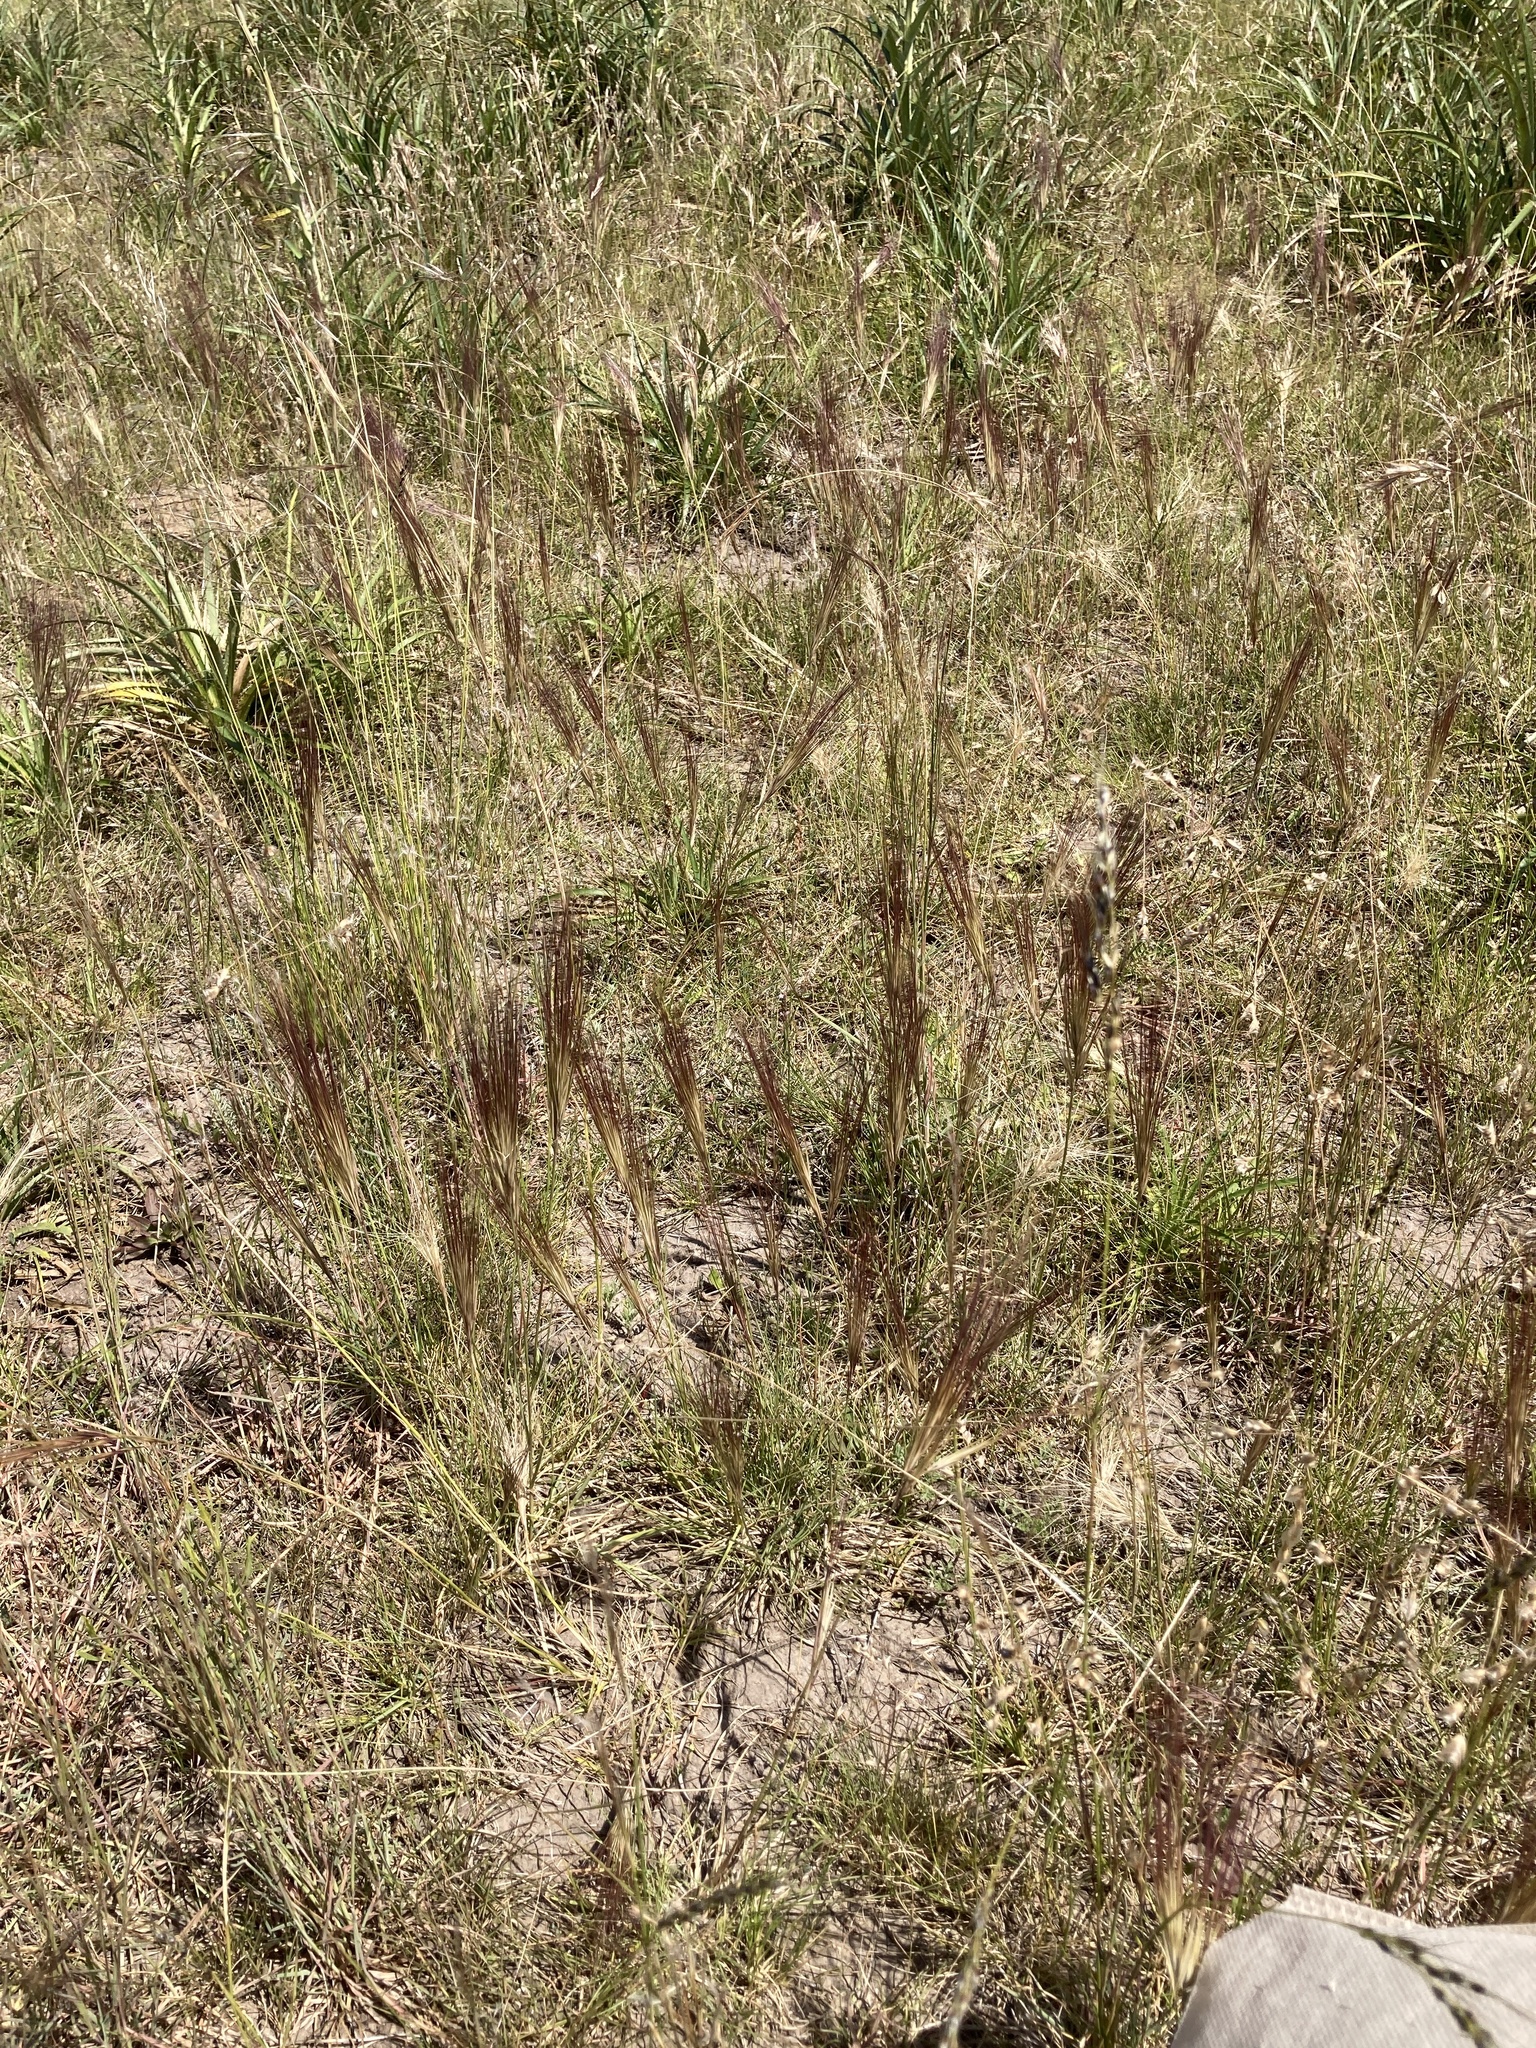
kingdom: Plantae
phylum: Tracheophyta
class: Liliopsida
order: Poales
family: Poaceae
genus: Aristida
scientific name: Aristida murina
